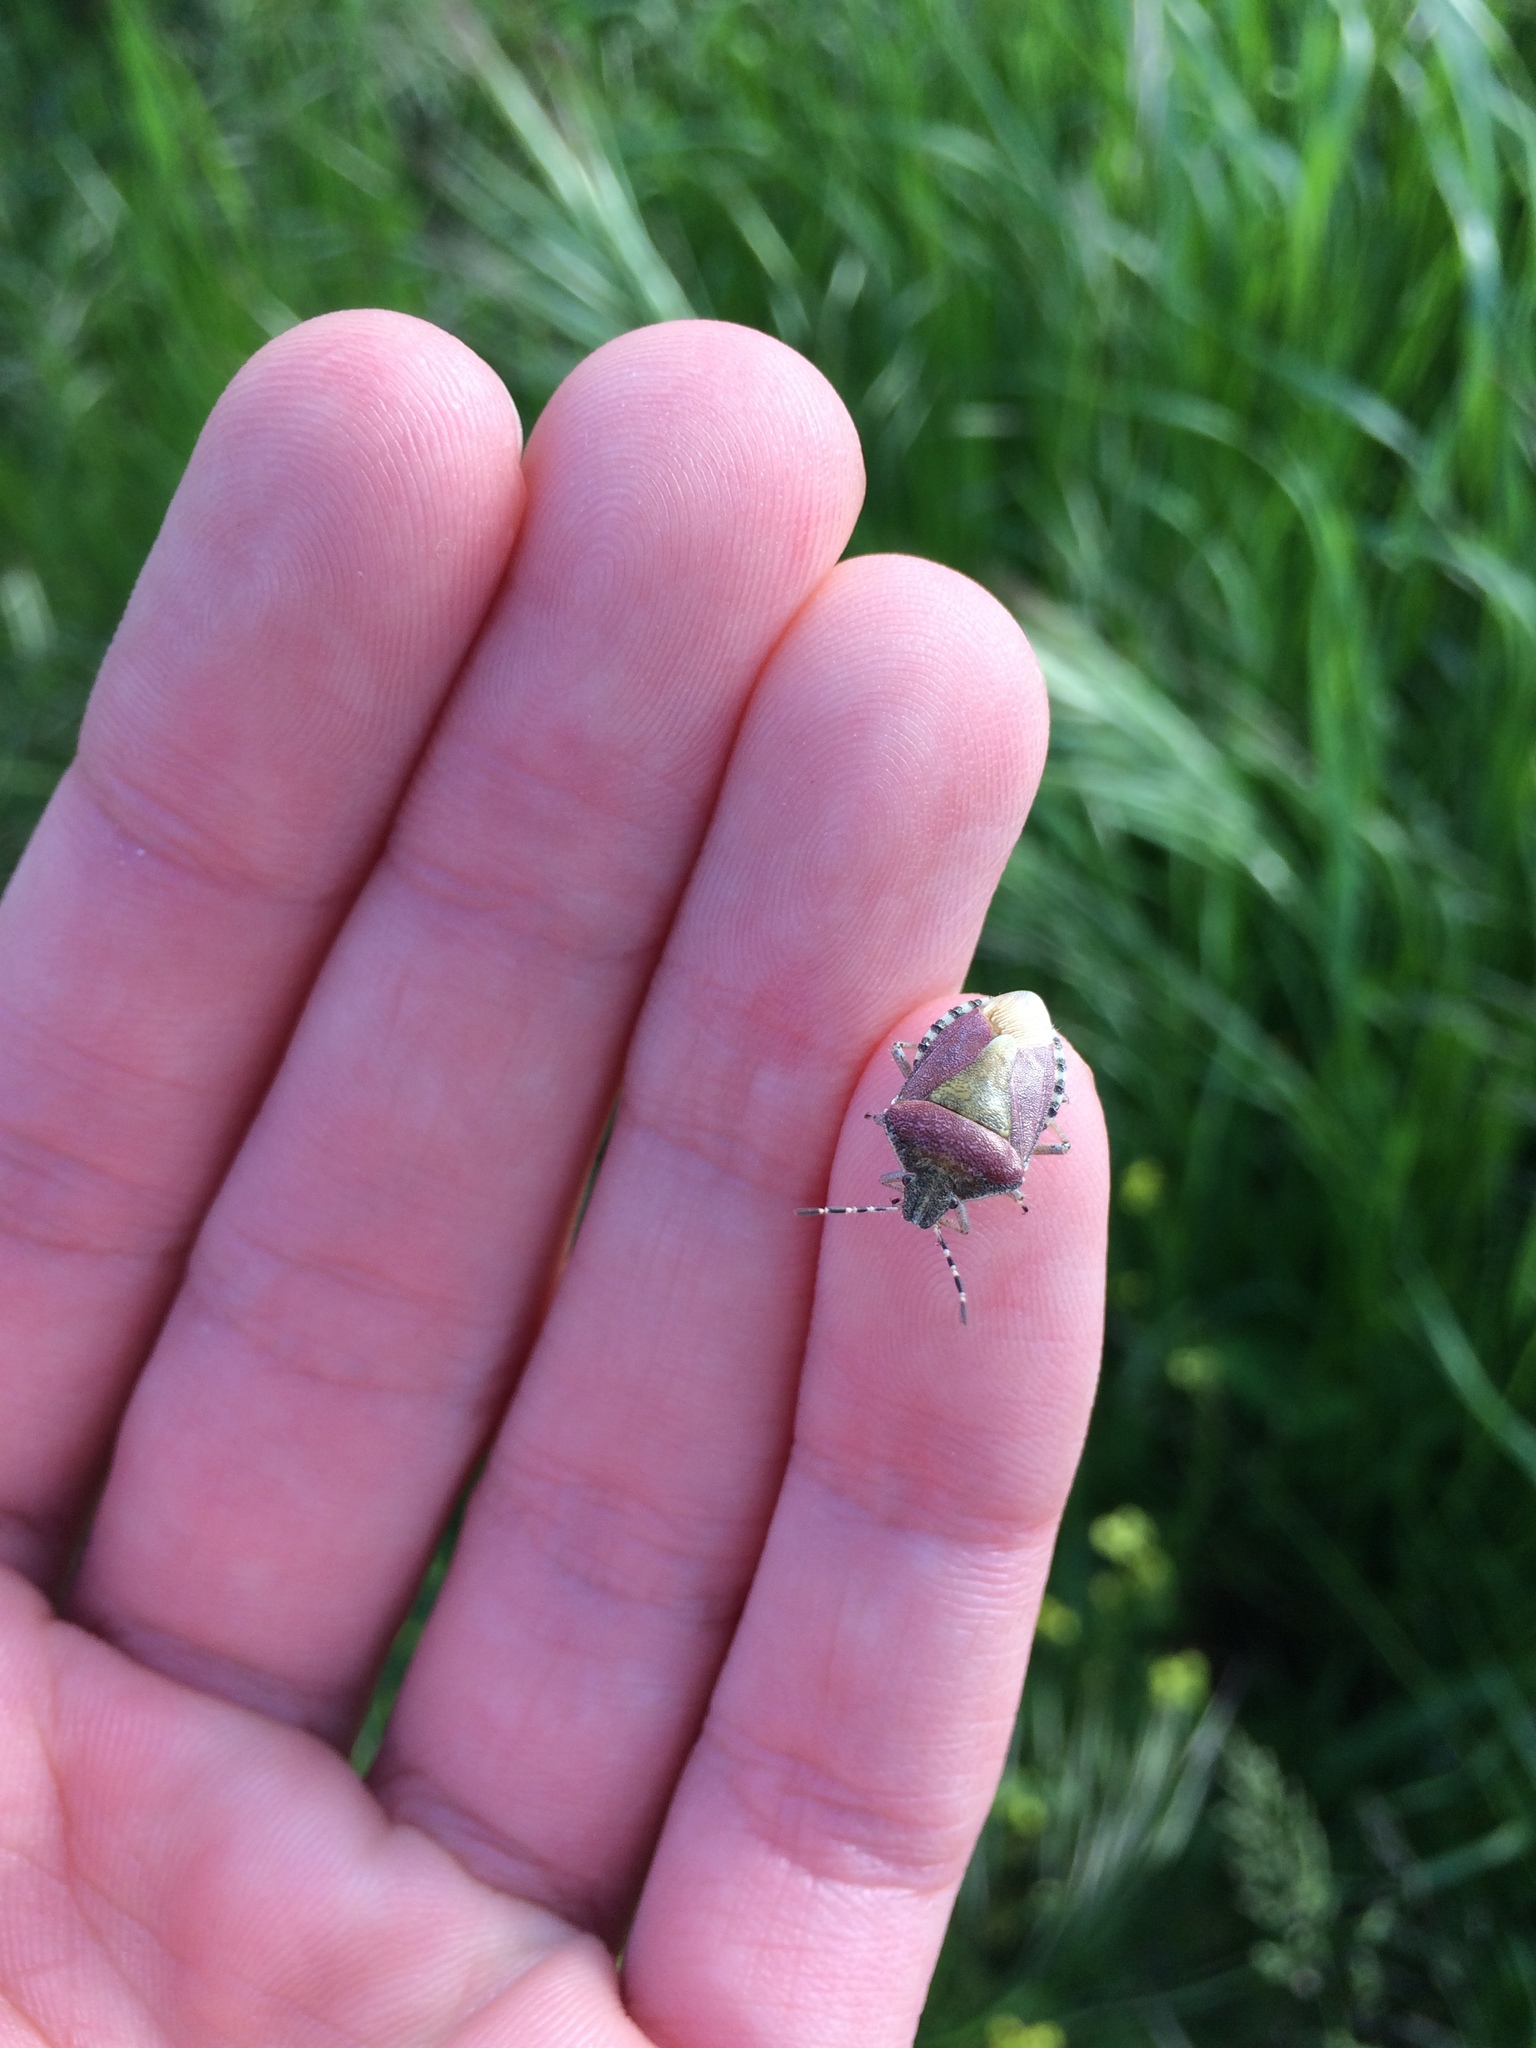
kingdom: Animalia
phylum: Arthropoda
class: Insecta
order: Hemiptera
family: Pentatomidae
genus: Dolycoris
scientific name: Dolycoris baccarum
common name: Sloe bug
